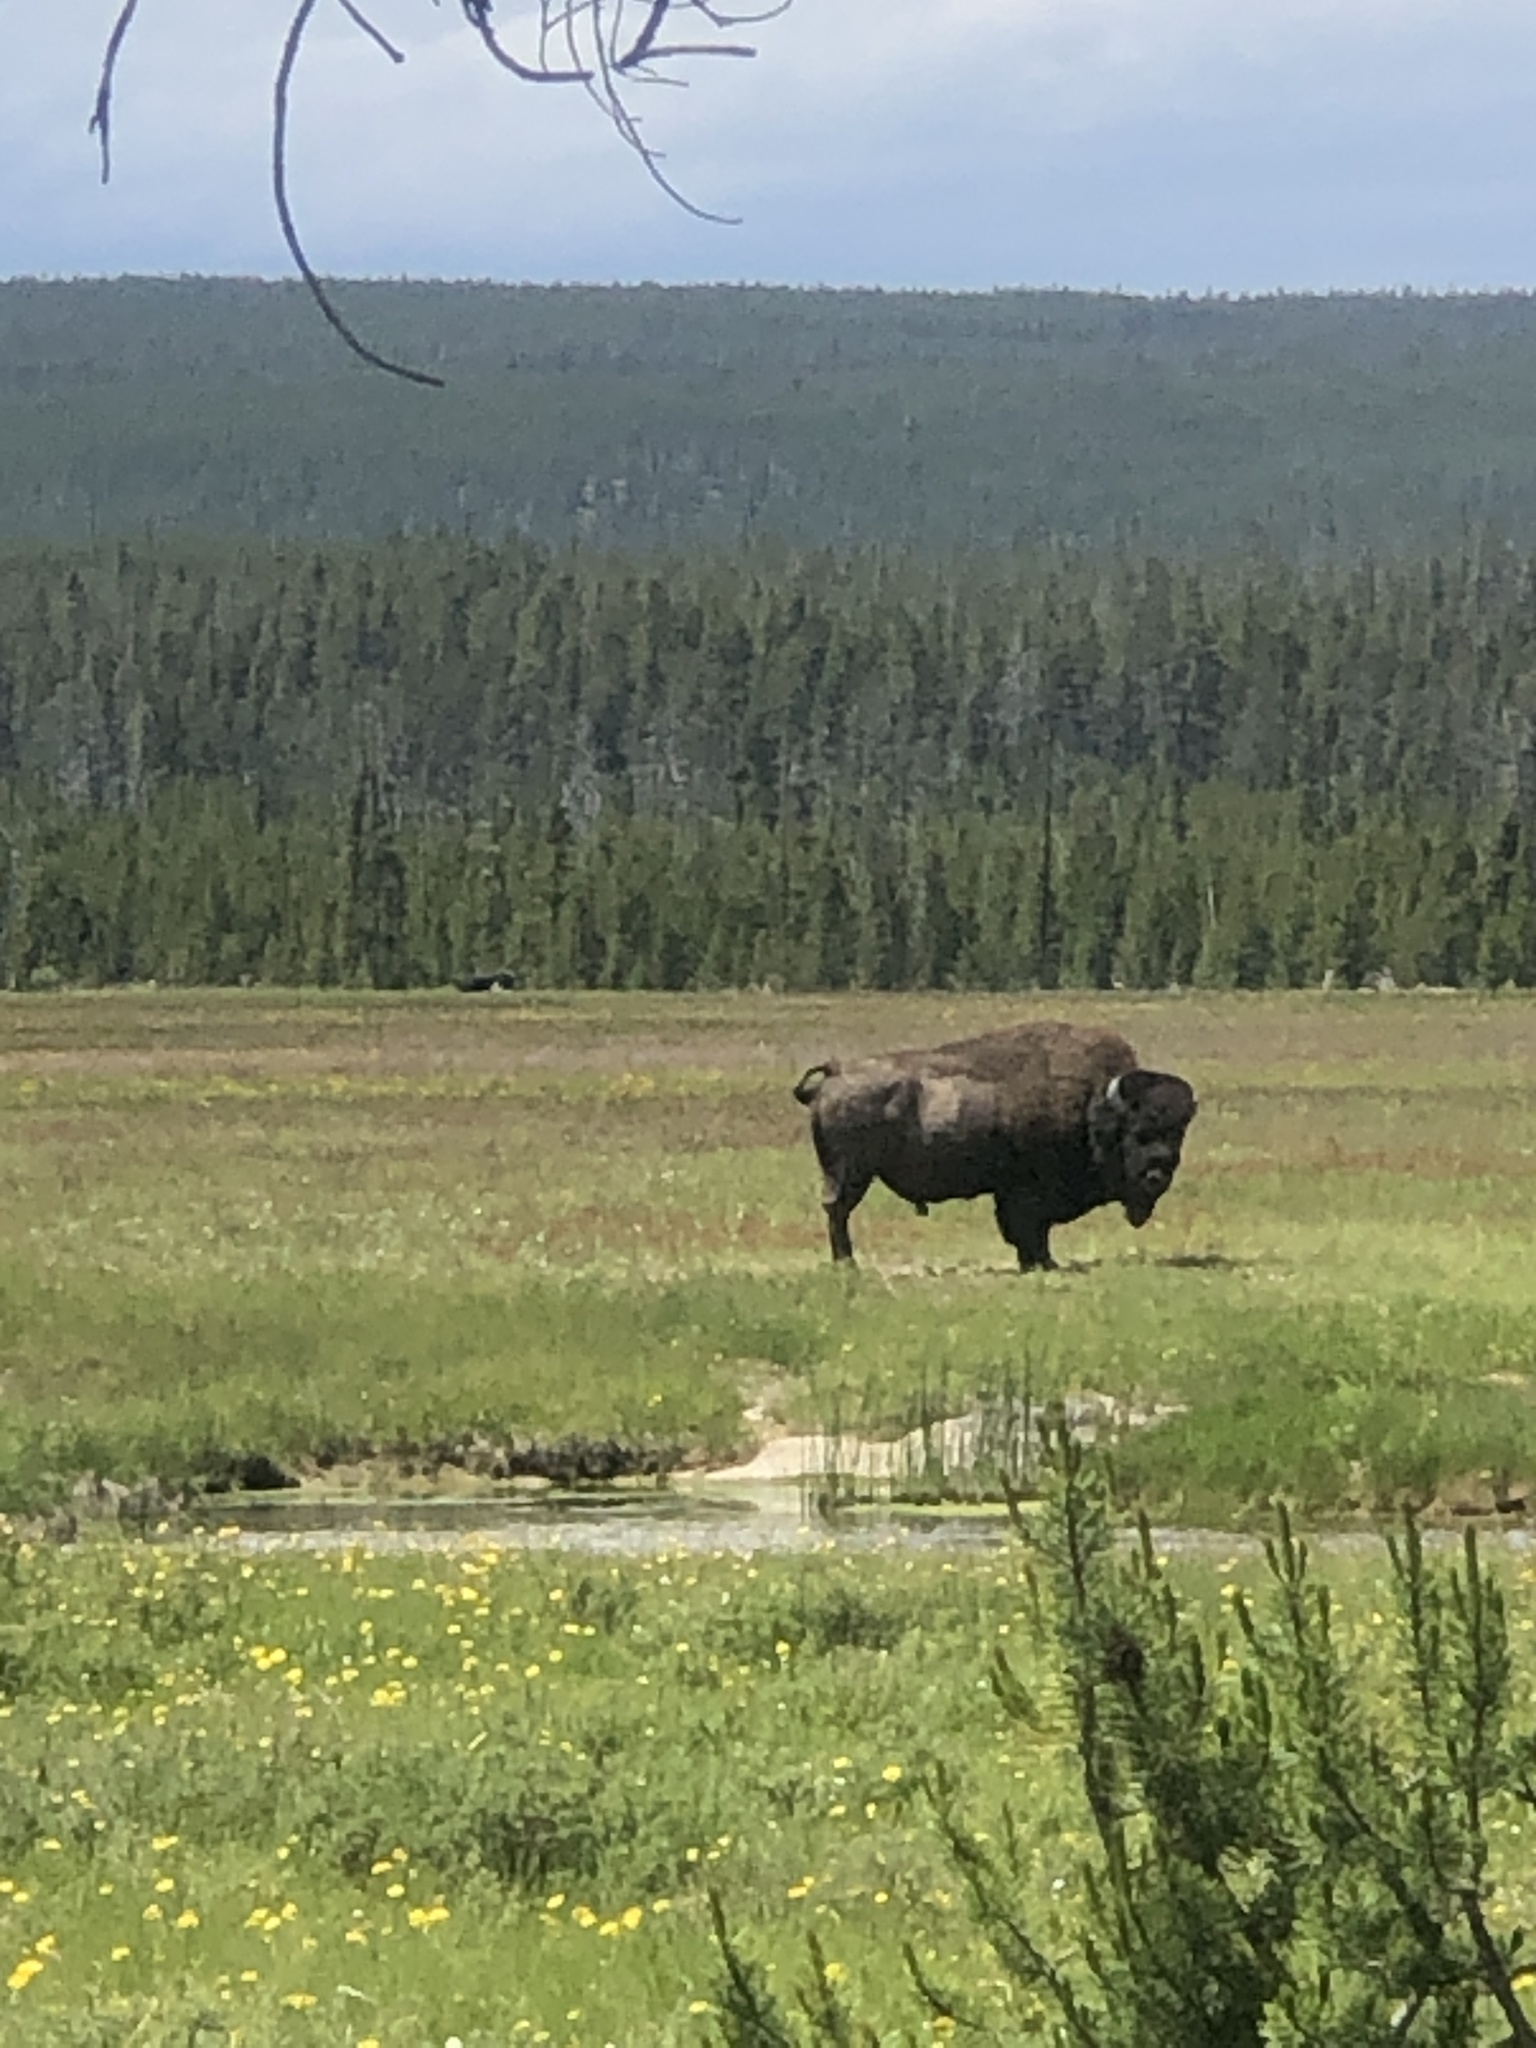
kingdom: Animalia
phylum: Chordata
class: Mammalia
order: Artiodactyla
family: Bovidae
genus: Bison
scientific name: Bison bison
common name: American bison
